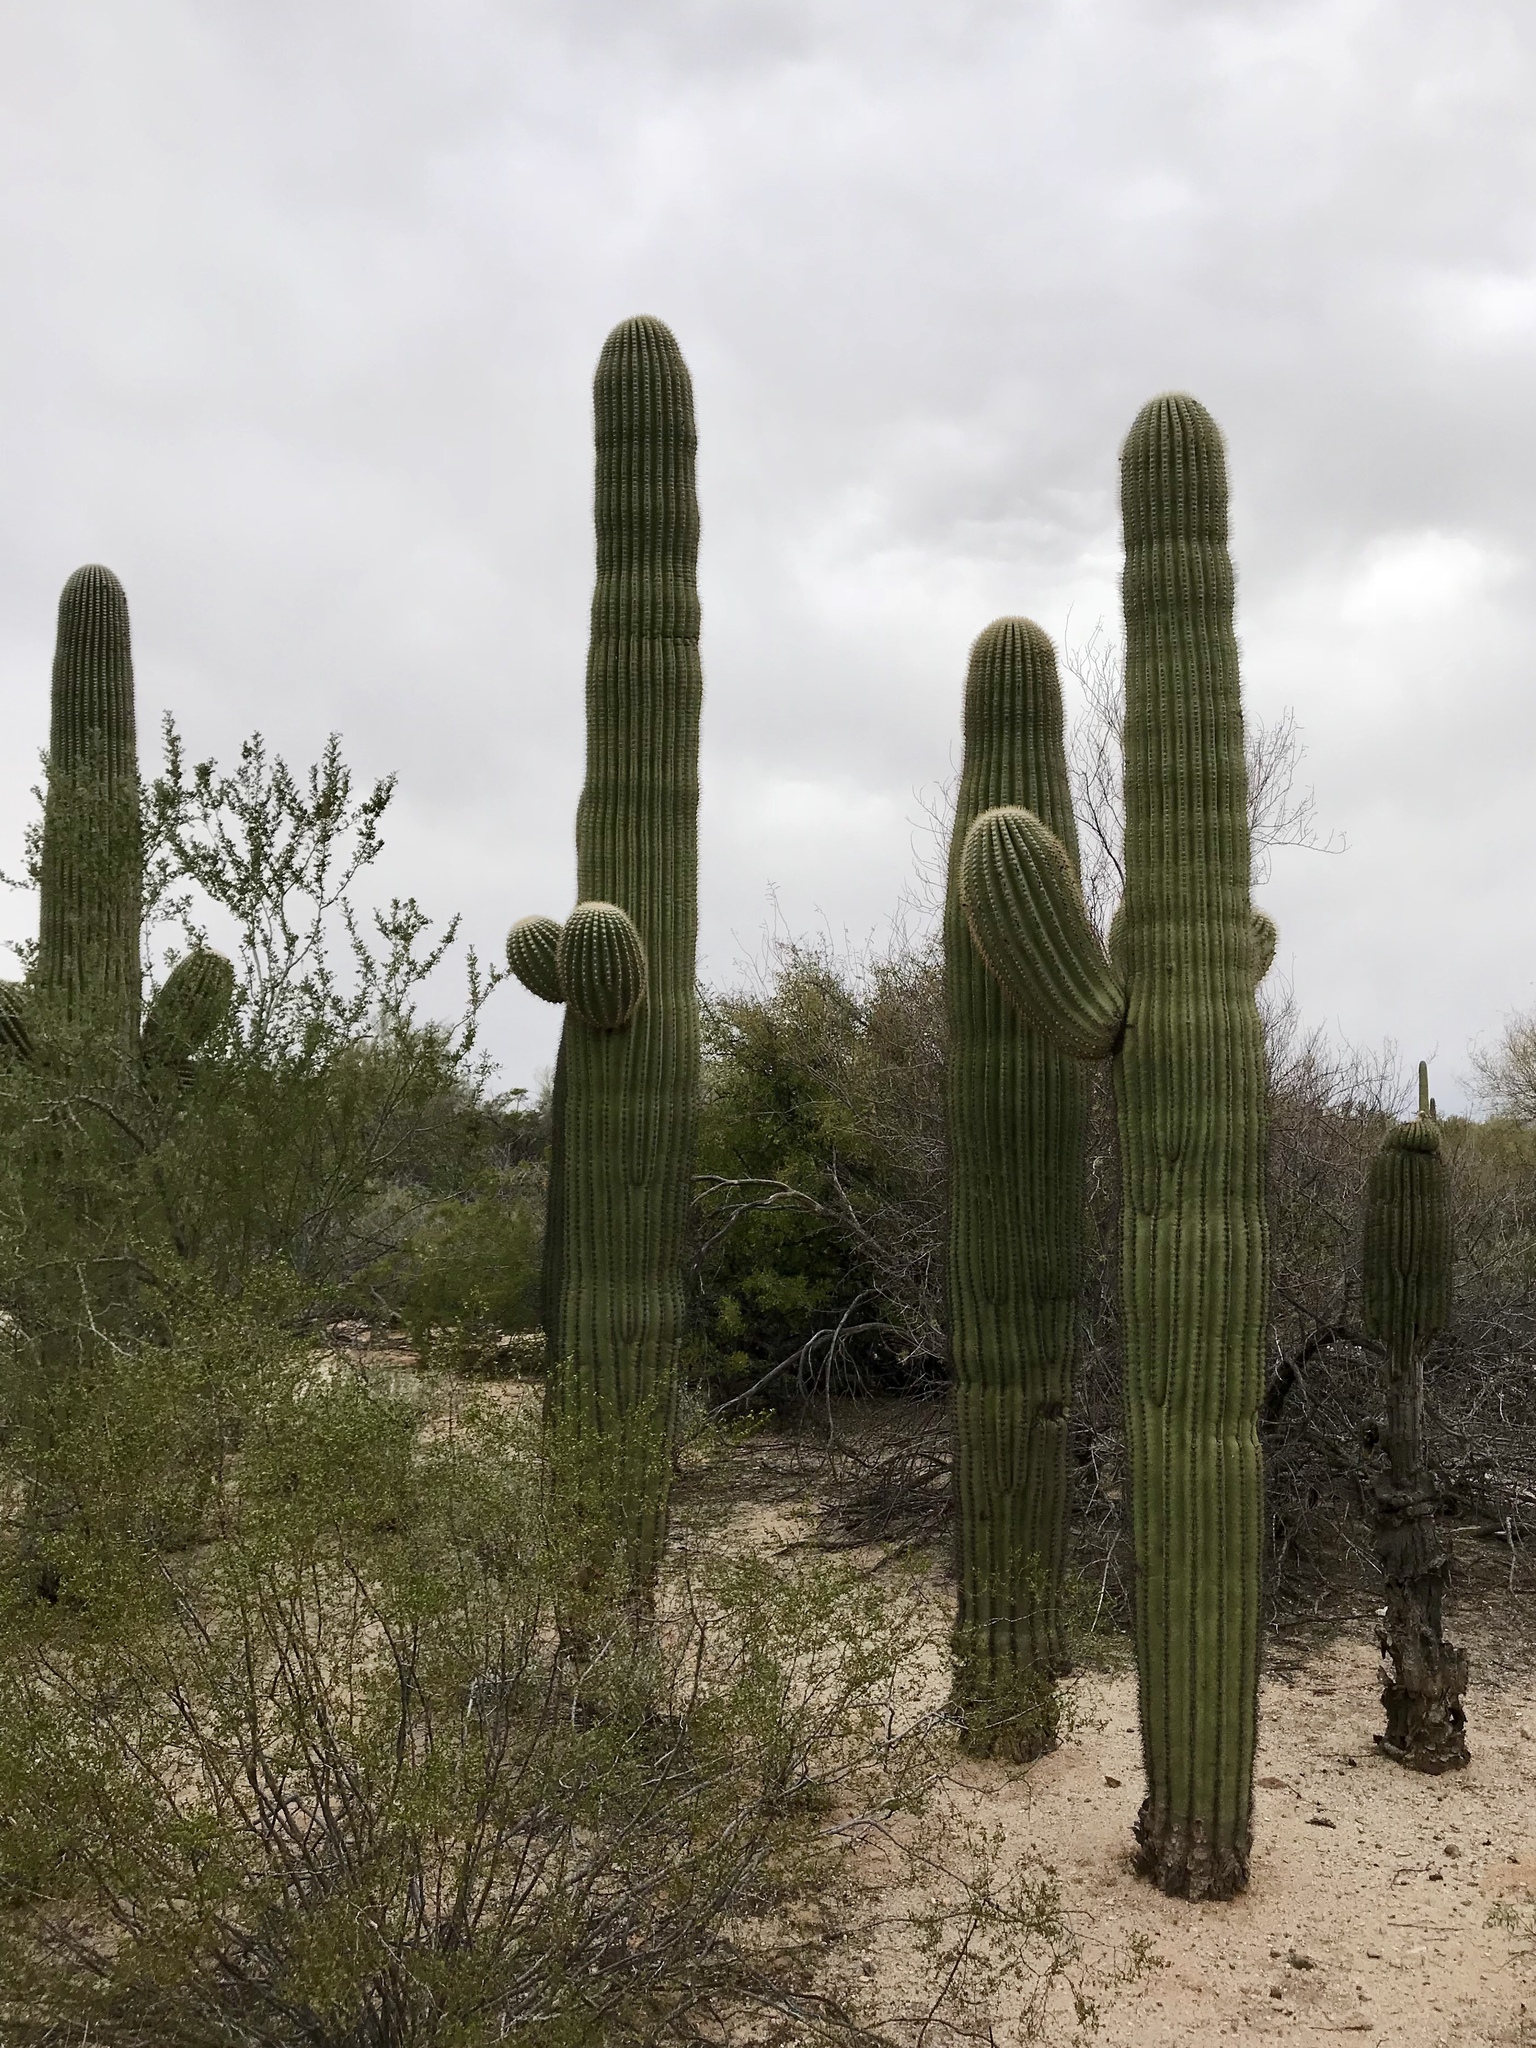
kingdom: Plantae
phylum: Tracheophyta
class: Magnoliopsida
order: Caryophyllales
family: Cactaceae
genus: Carnegiea
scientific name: Carnegiea gigantea
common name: Saguaro
